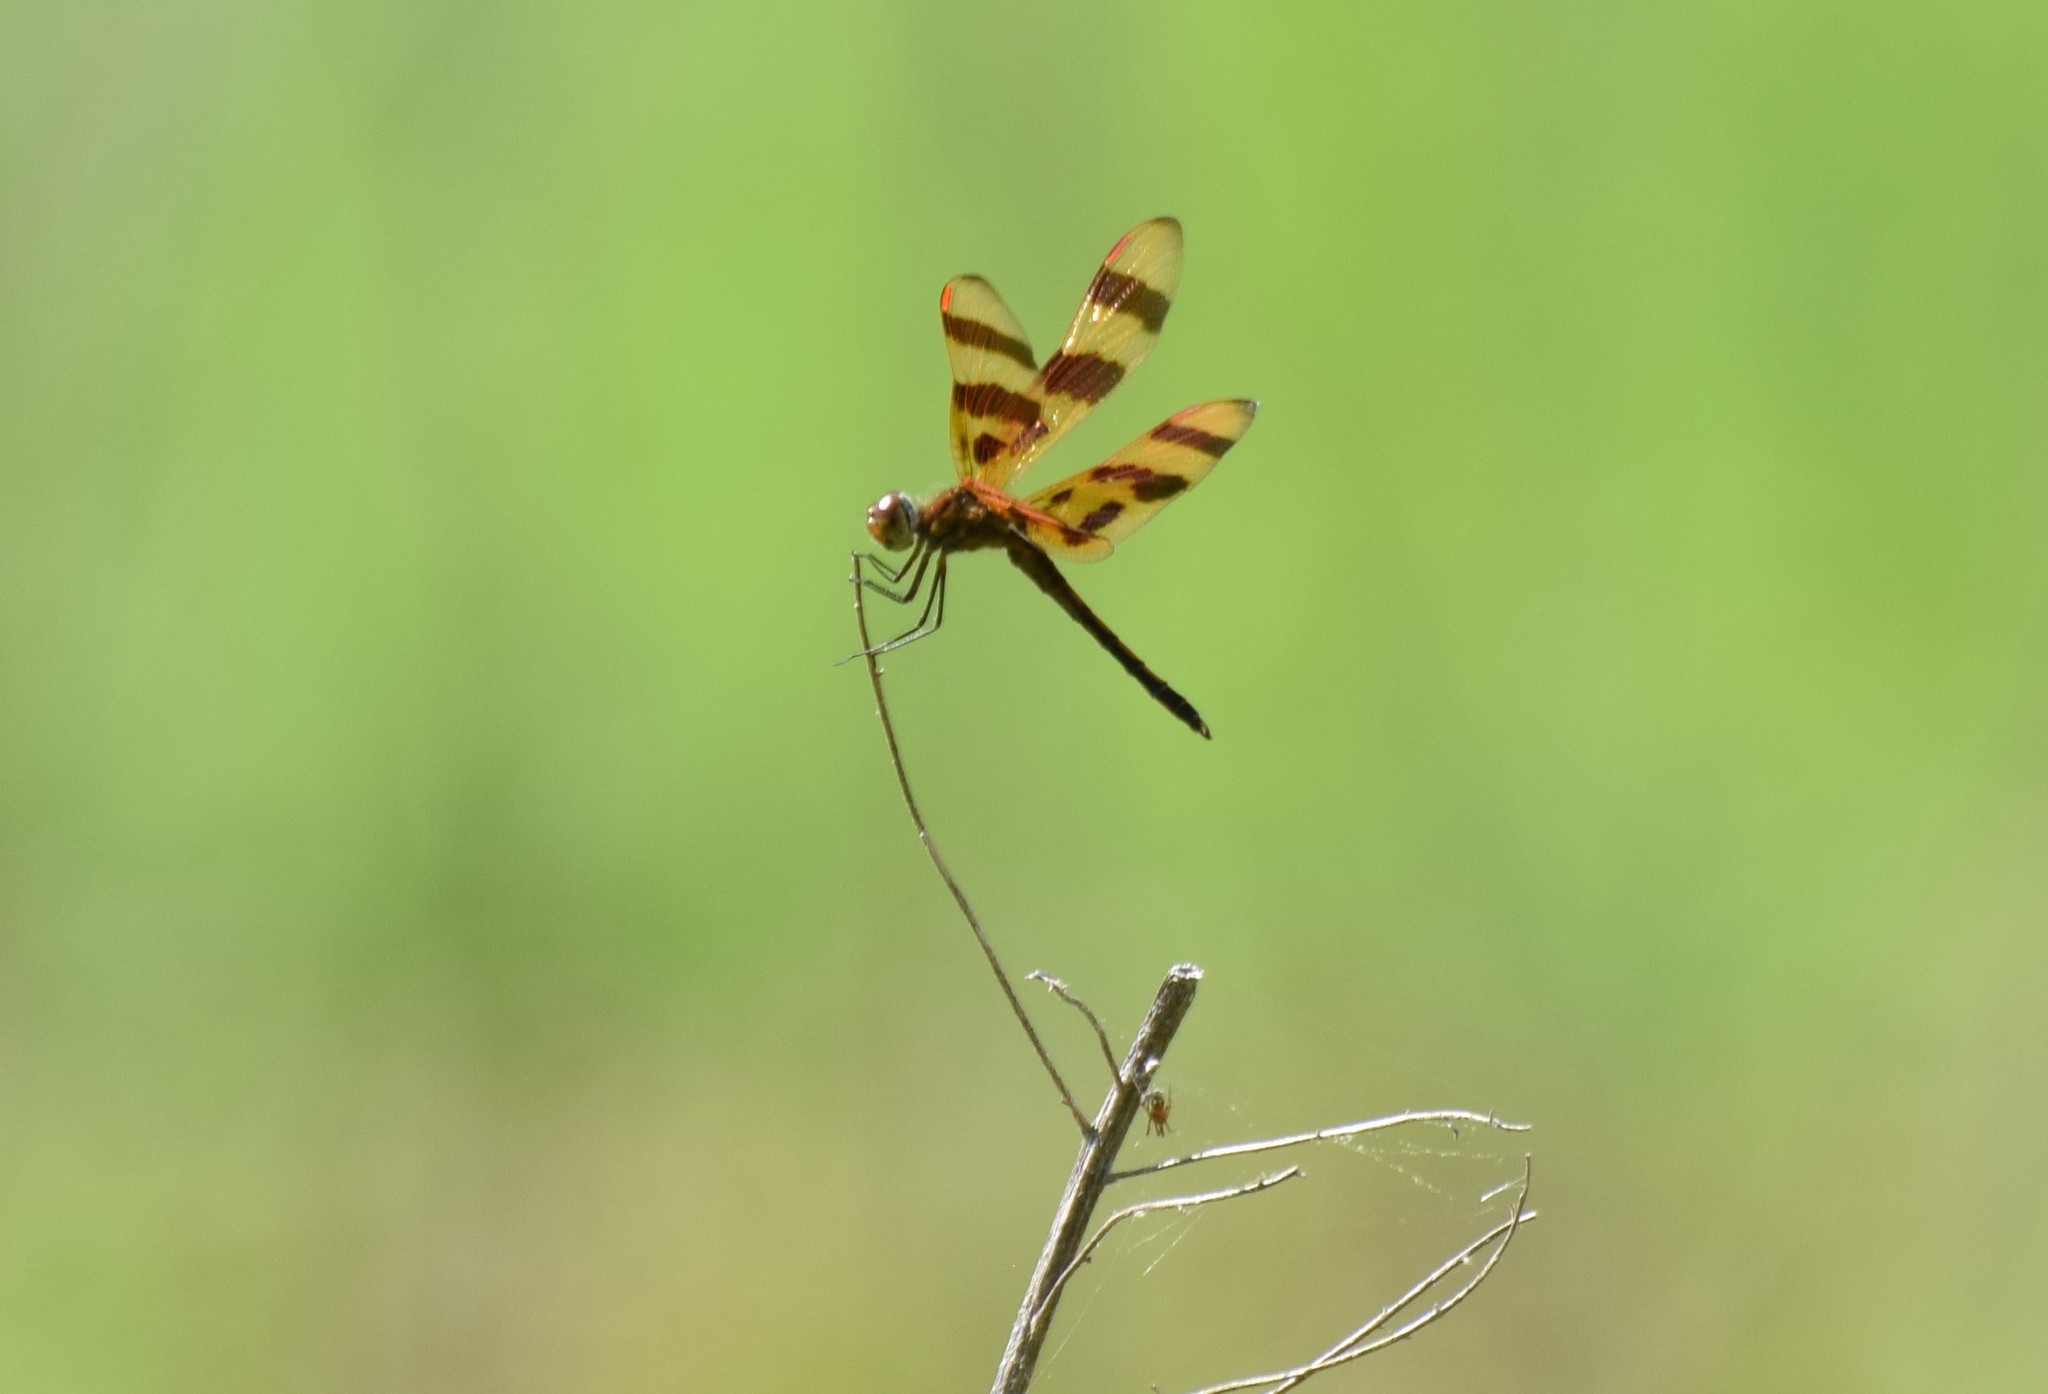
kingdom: Animalia
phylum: Arthropoda
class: Insecta
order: Odonata
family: Libellulidae
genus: Celithemis
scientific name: Celithemis eponina
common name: Halloween pennant
